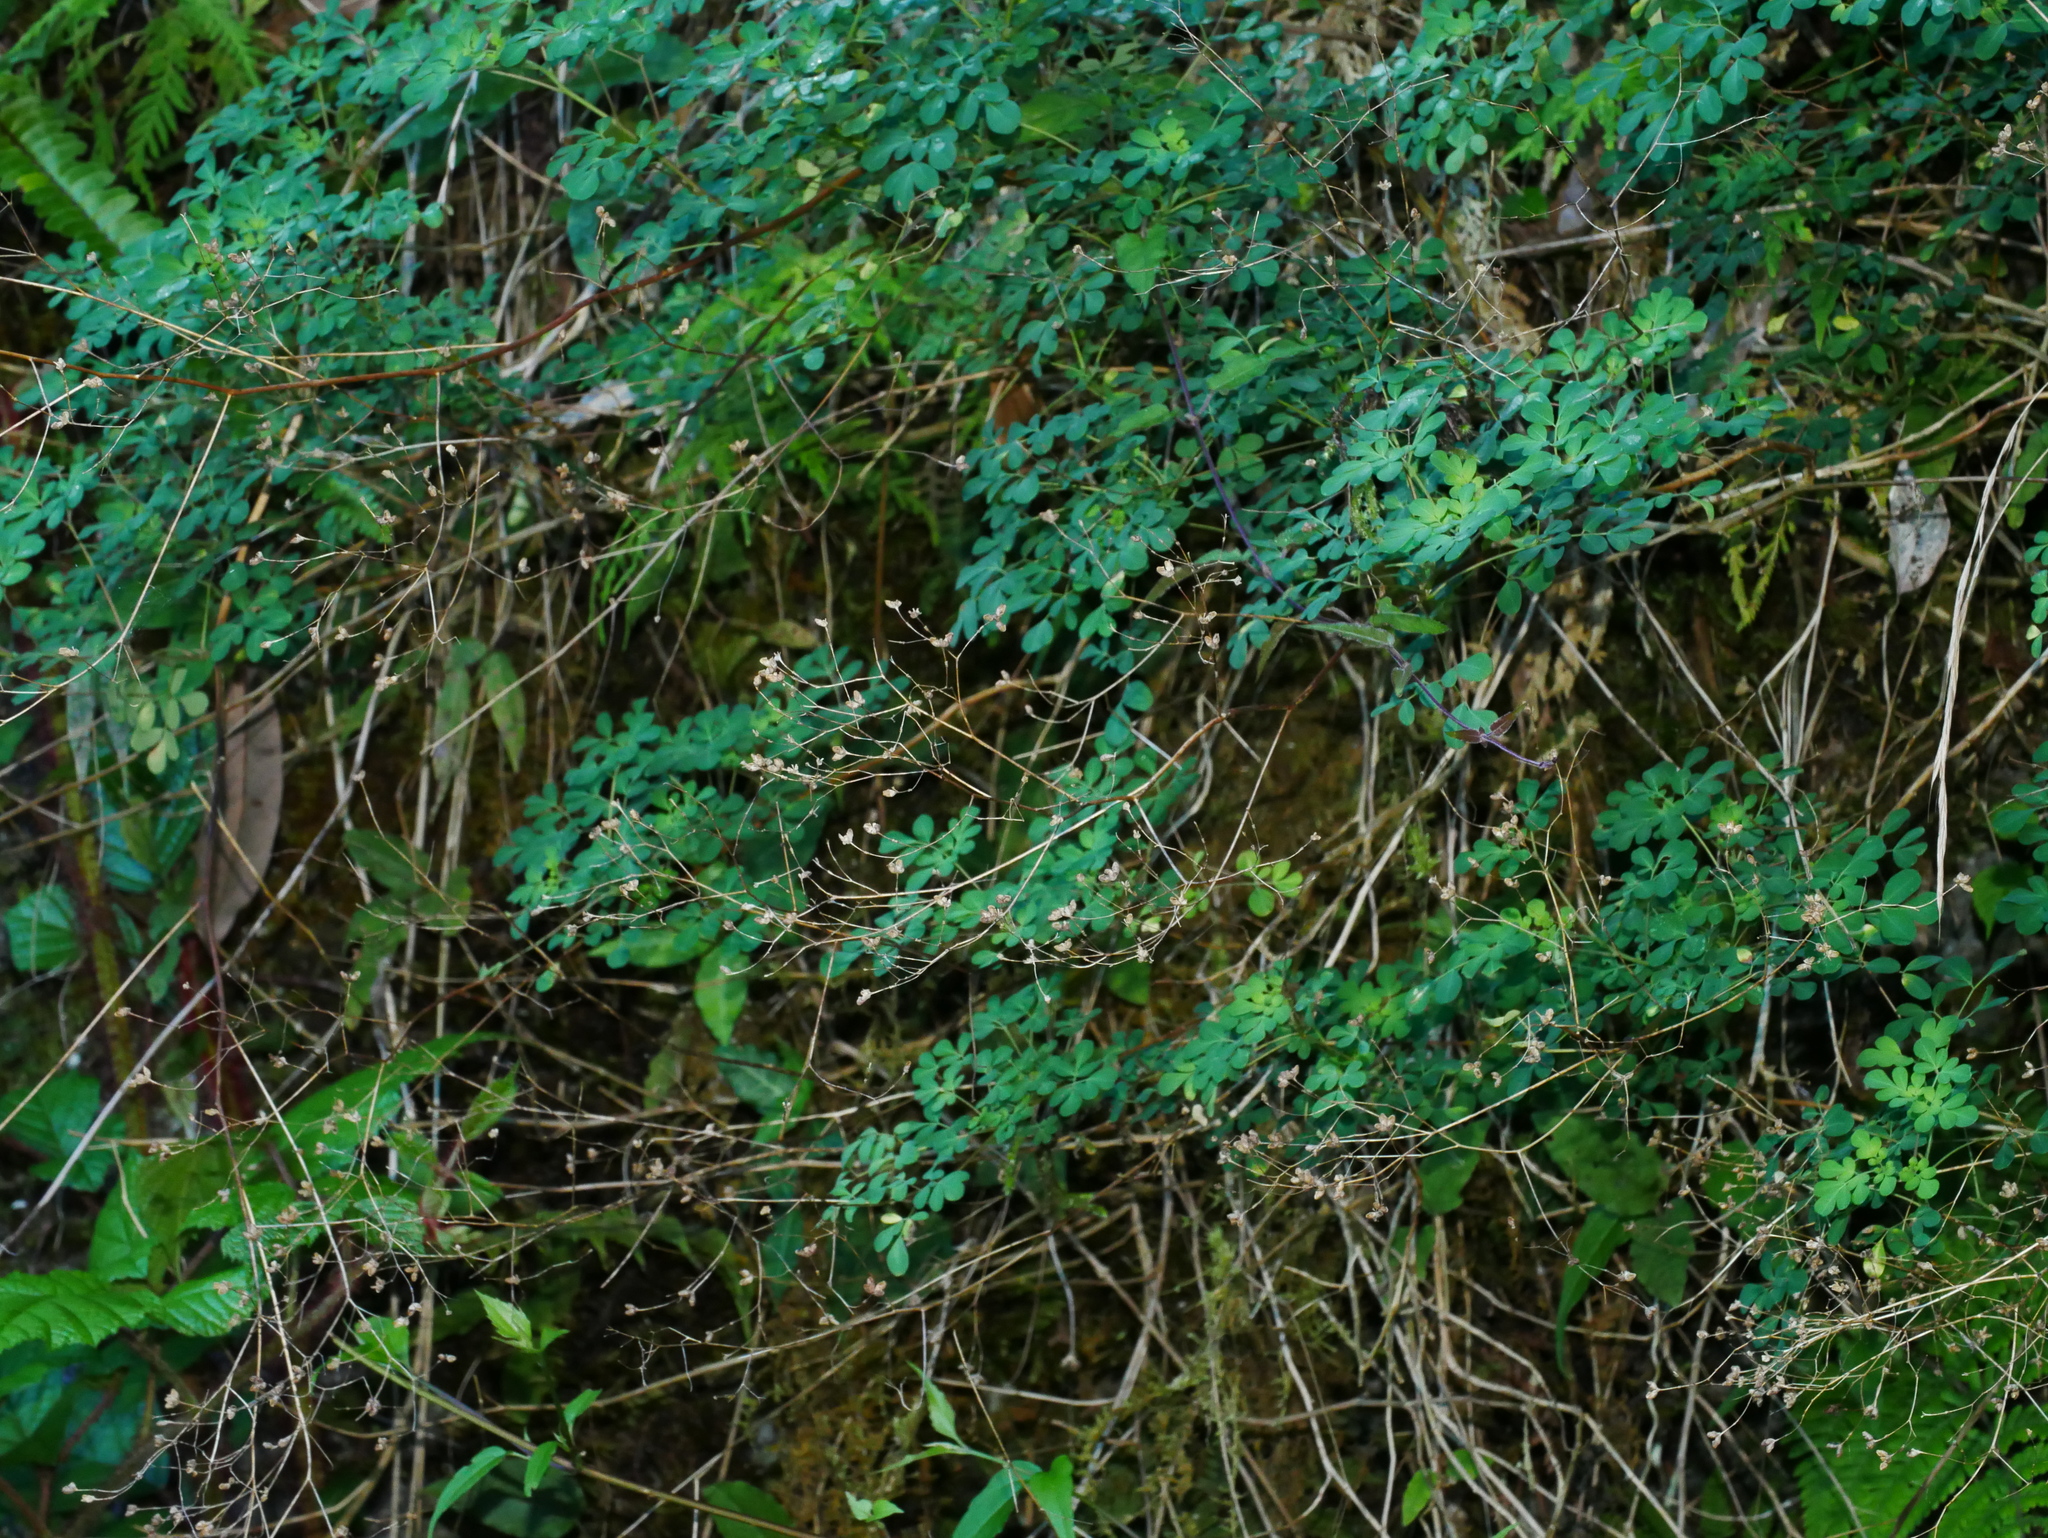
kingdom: Plantae
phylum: Tracheophyta
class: Magnoliopsida
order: Sapindales
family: Rutaceae
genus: Boenninghausenia
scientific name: Boenninghausenia albiflora
